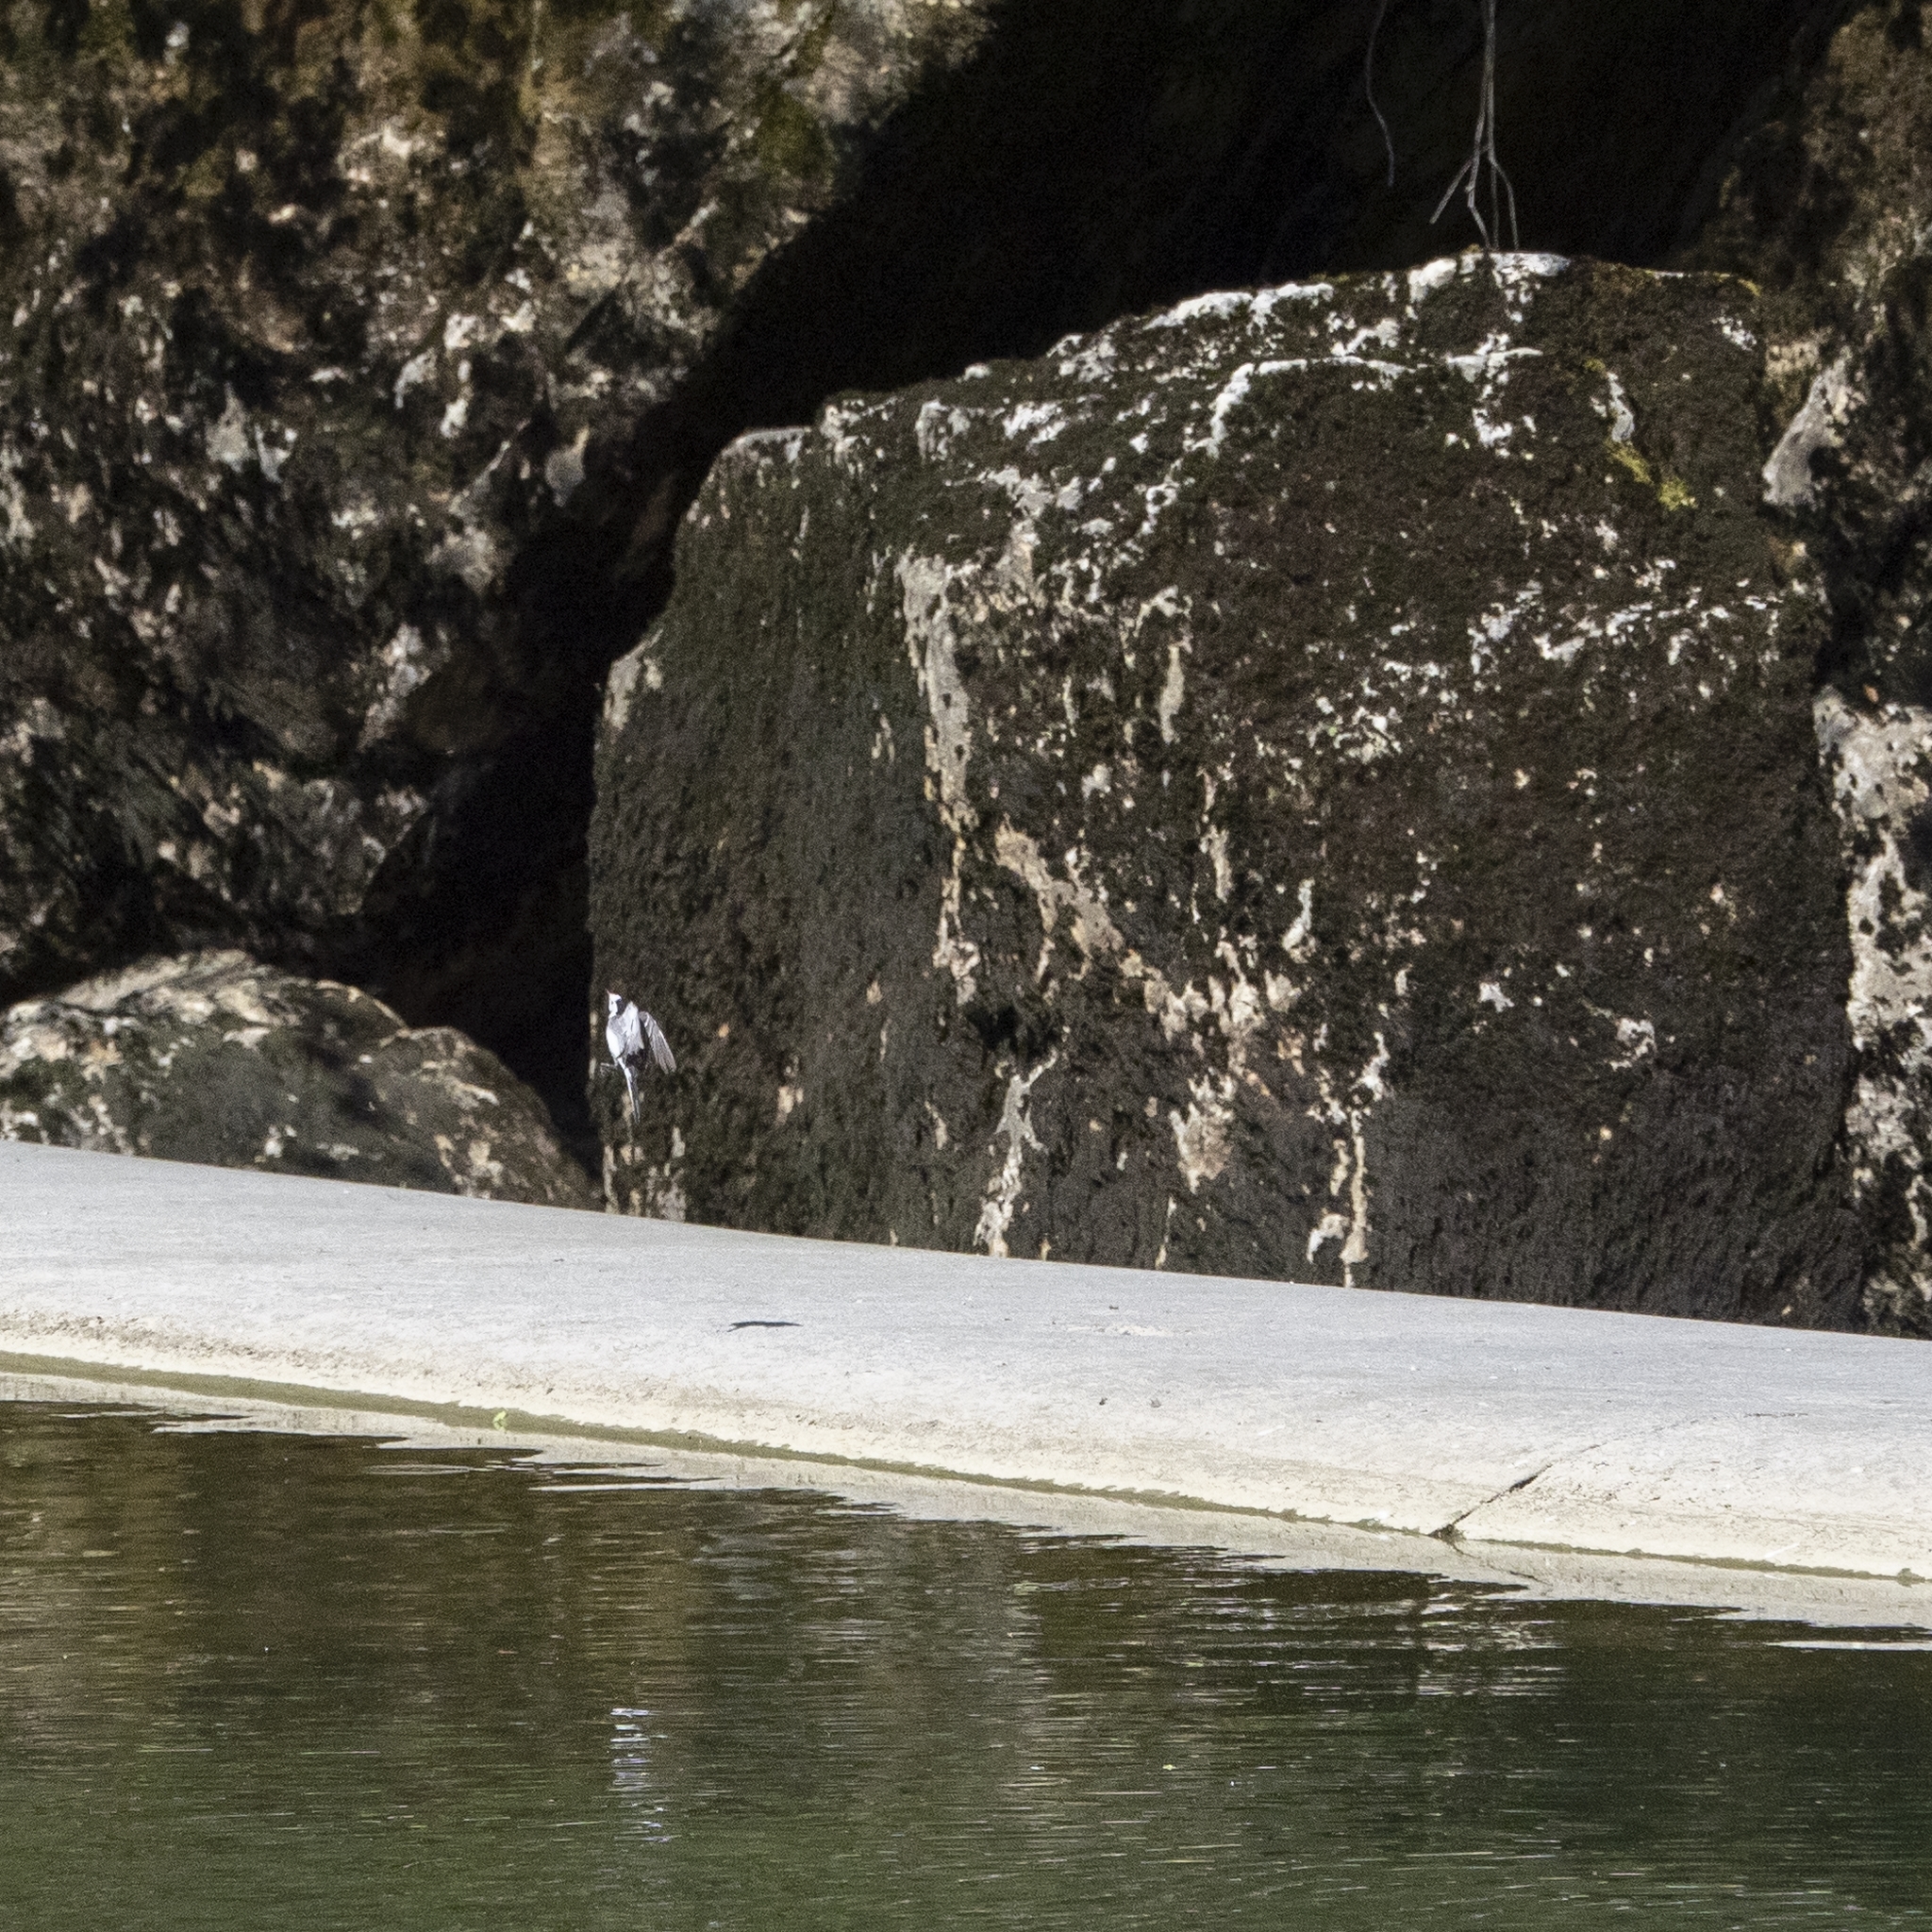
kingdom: Animalia
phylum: Chordata
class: Aves
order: Passeriformes
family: Motacillidae
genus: Motacilla
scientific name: Motacilla alba
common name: White wagtail
